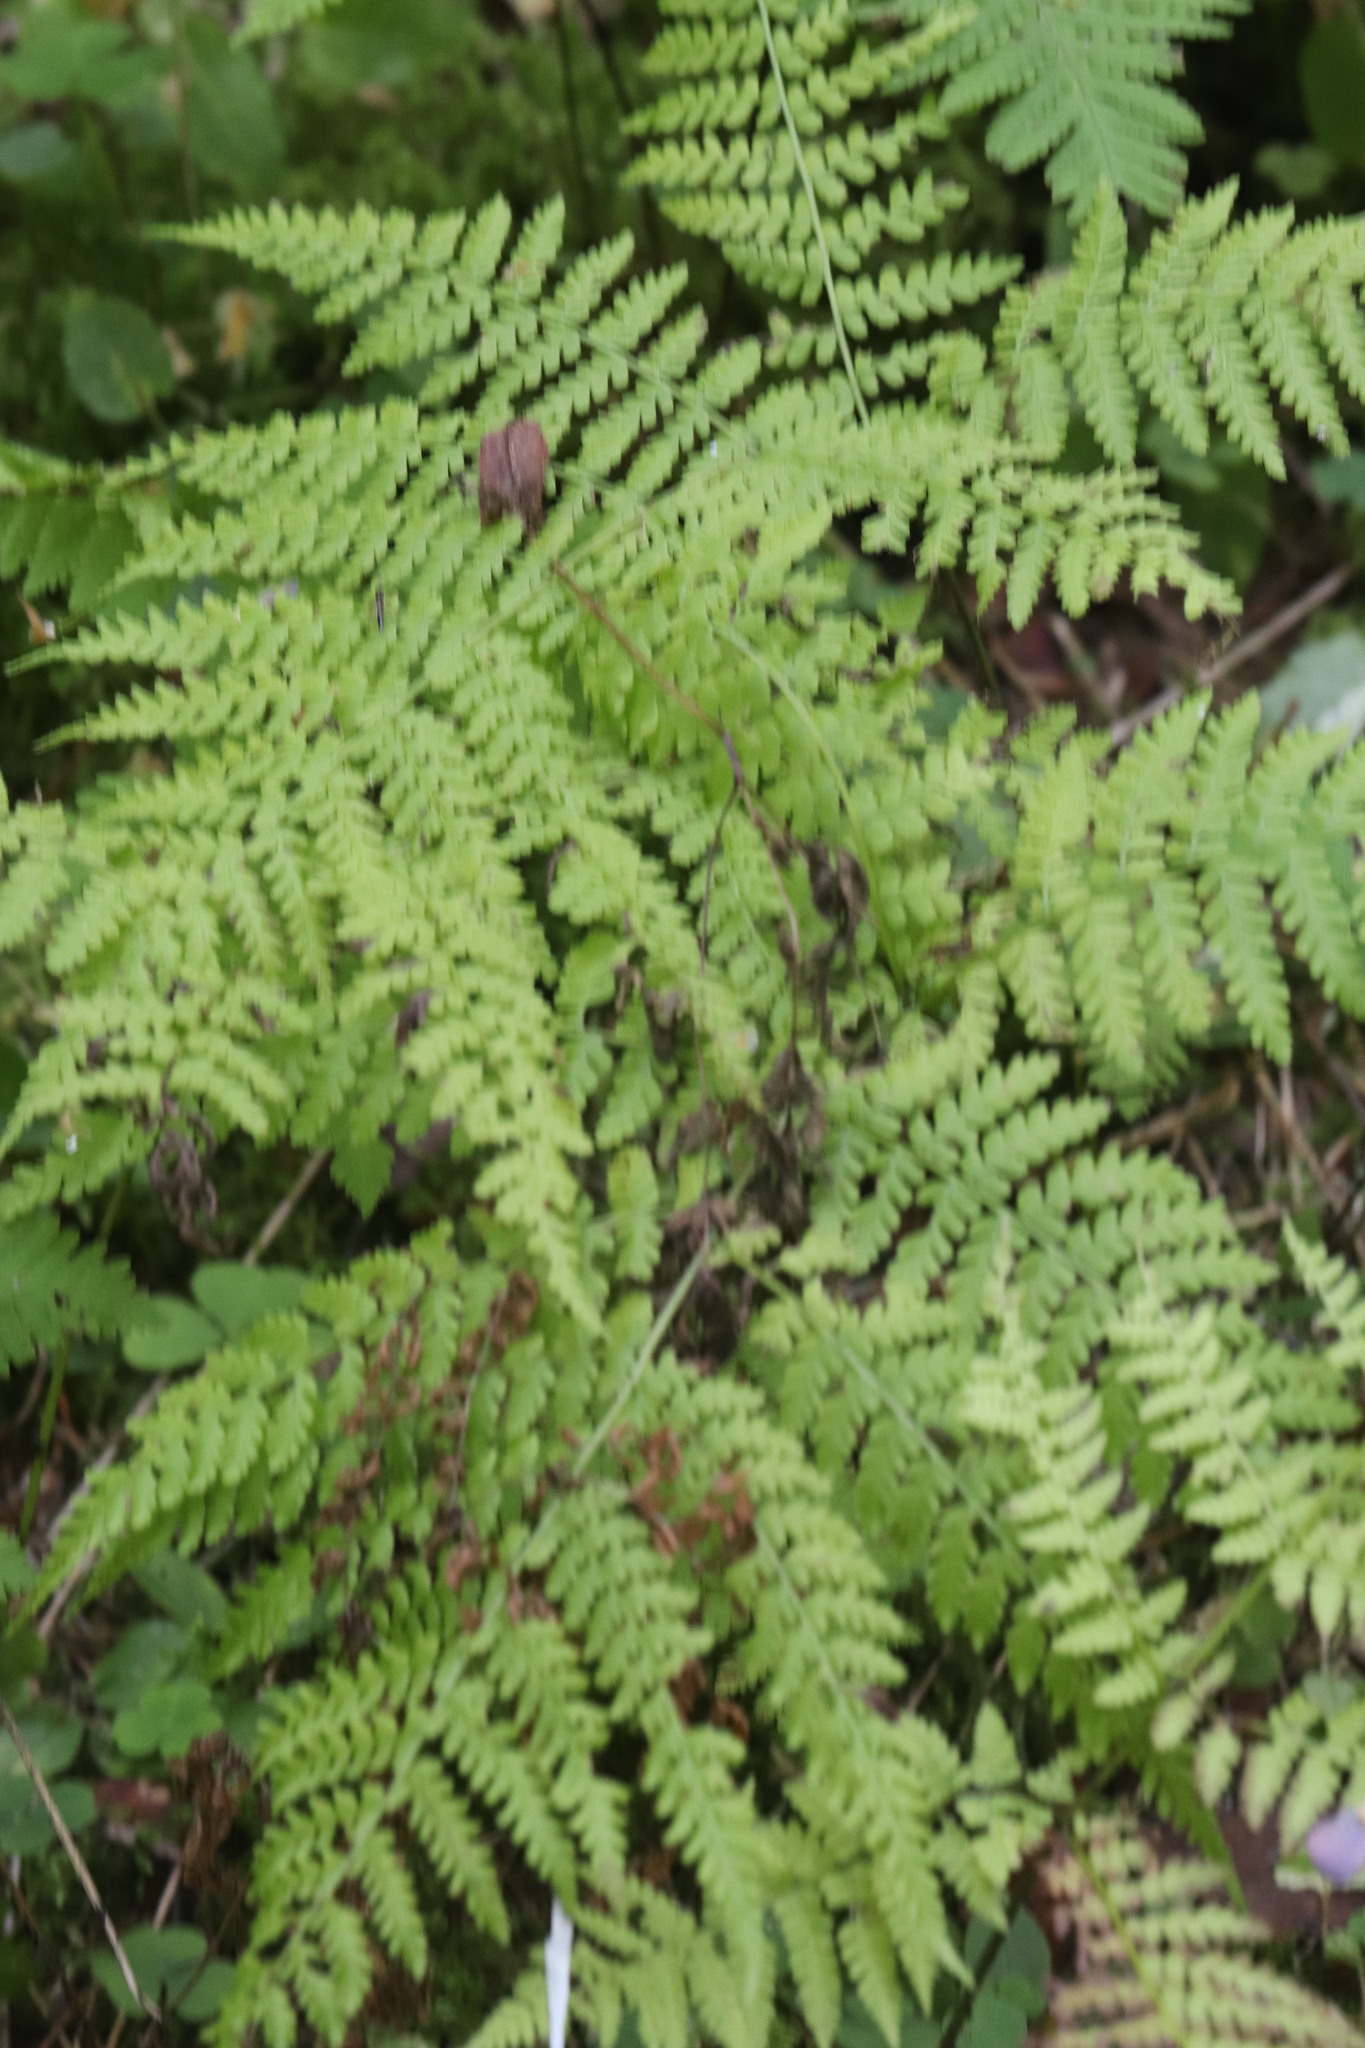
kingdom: Plantae
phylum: Tracheophyta
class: Polypodiopsida
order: Polypodiales
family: Athyriaceae
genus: Diplazium
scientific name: Diplazium sibiricum
